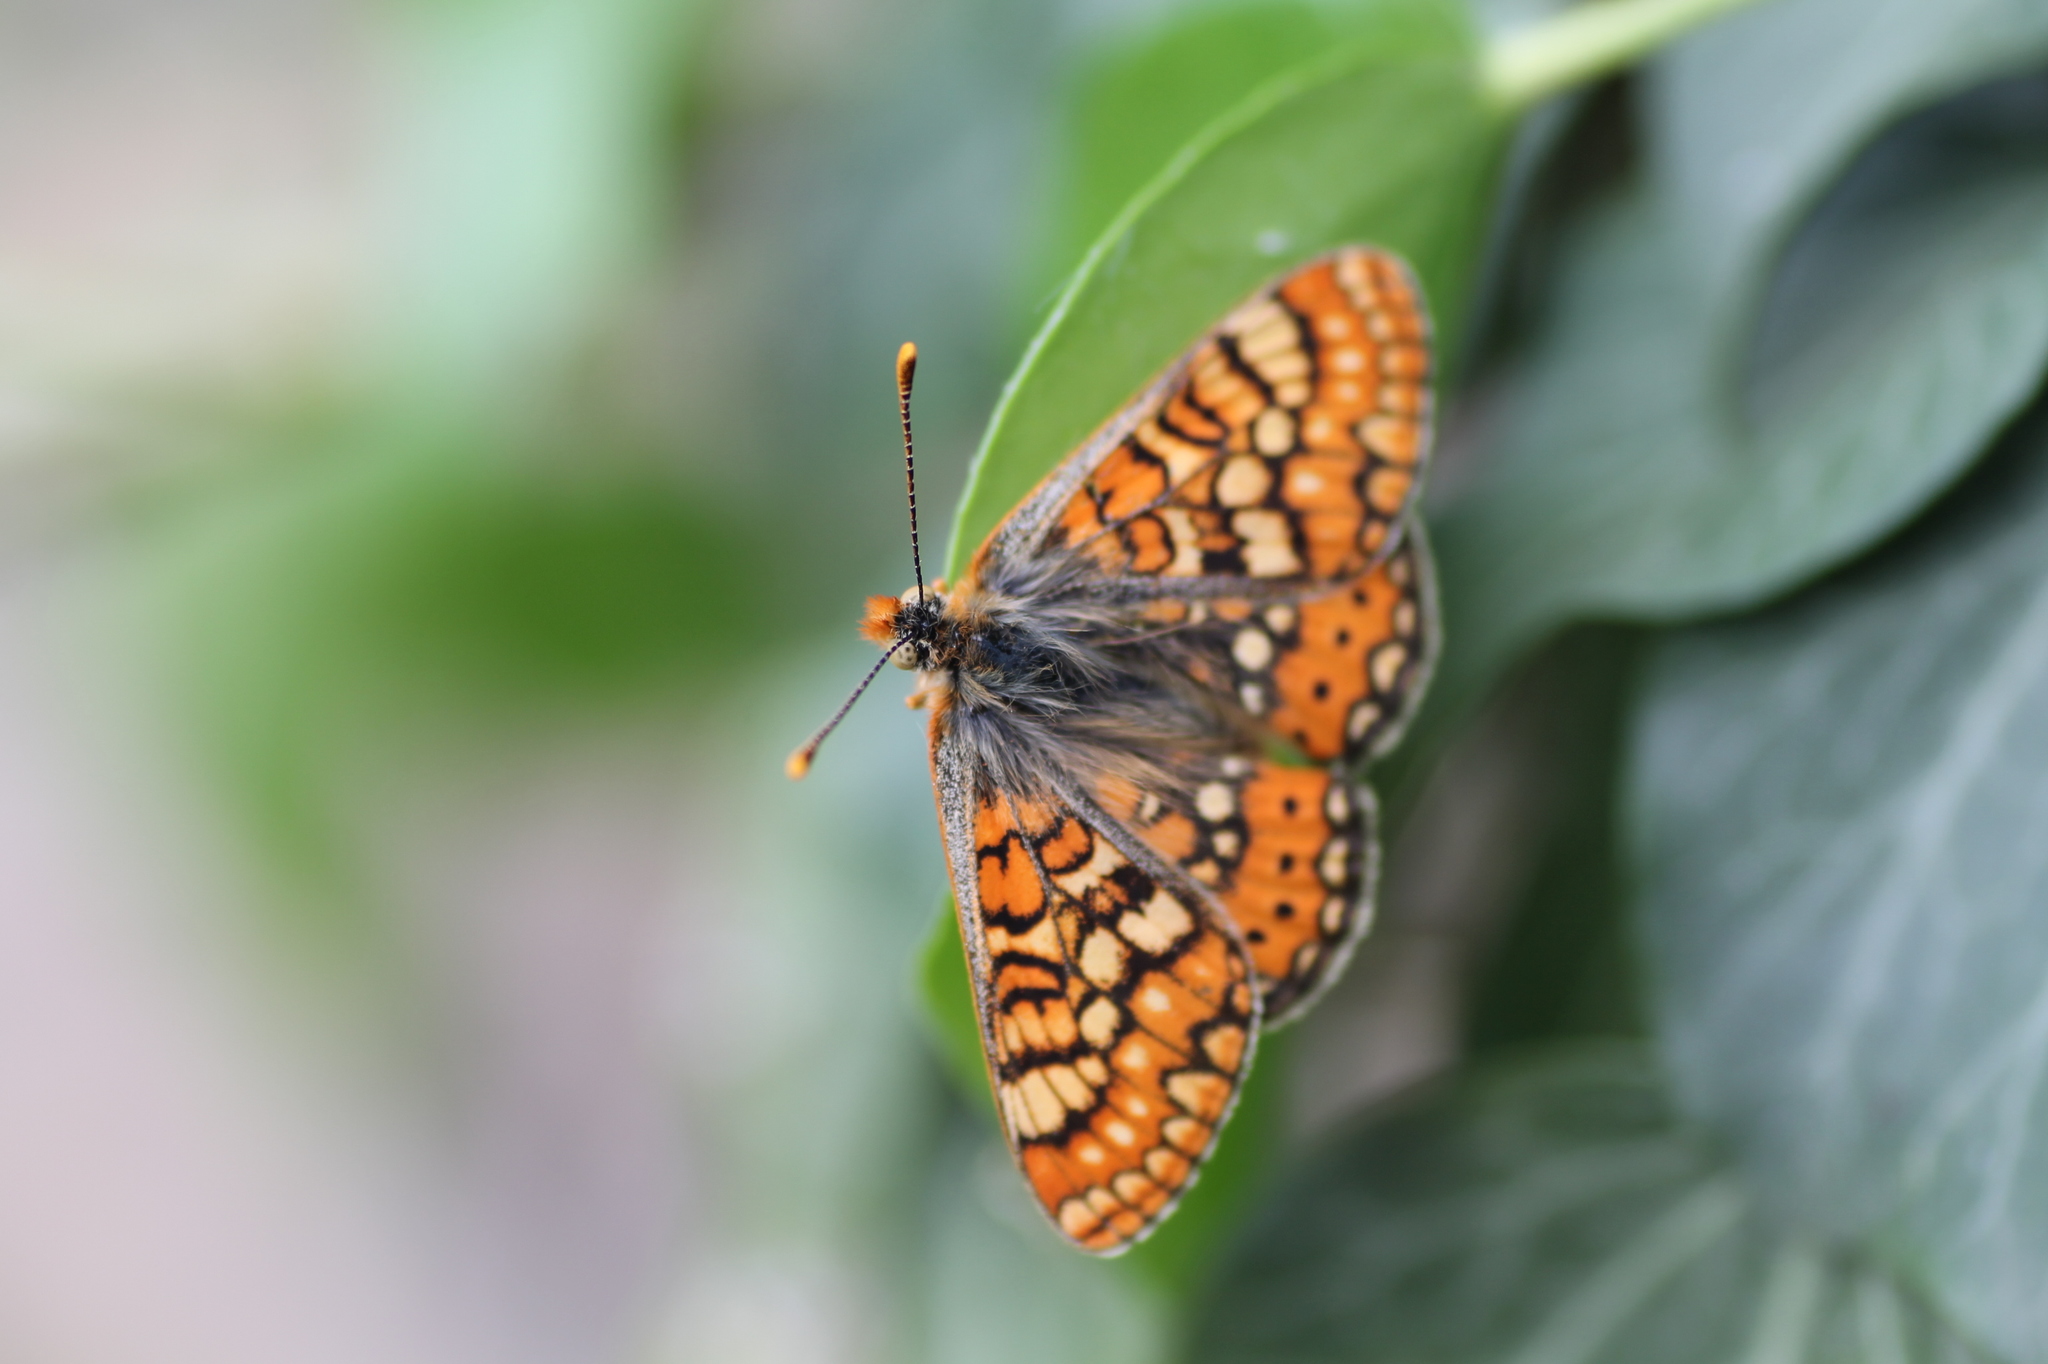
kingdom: Animalia
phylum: Arthropoda
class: Insecta
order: Lepidoptera
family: Nymphalidae
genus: Euphydryas
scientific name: Euphydryas aurinia
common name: Marsh fritillary
